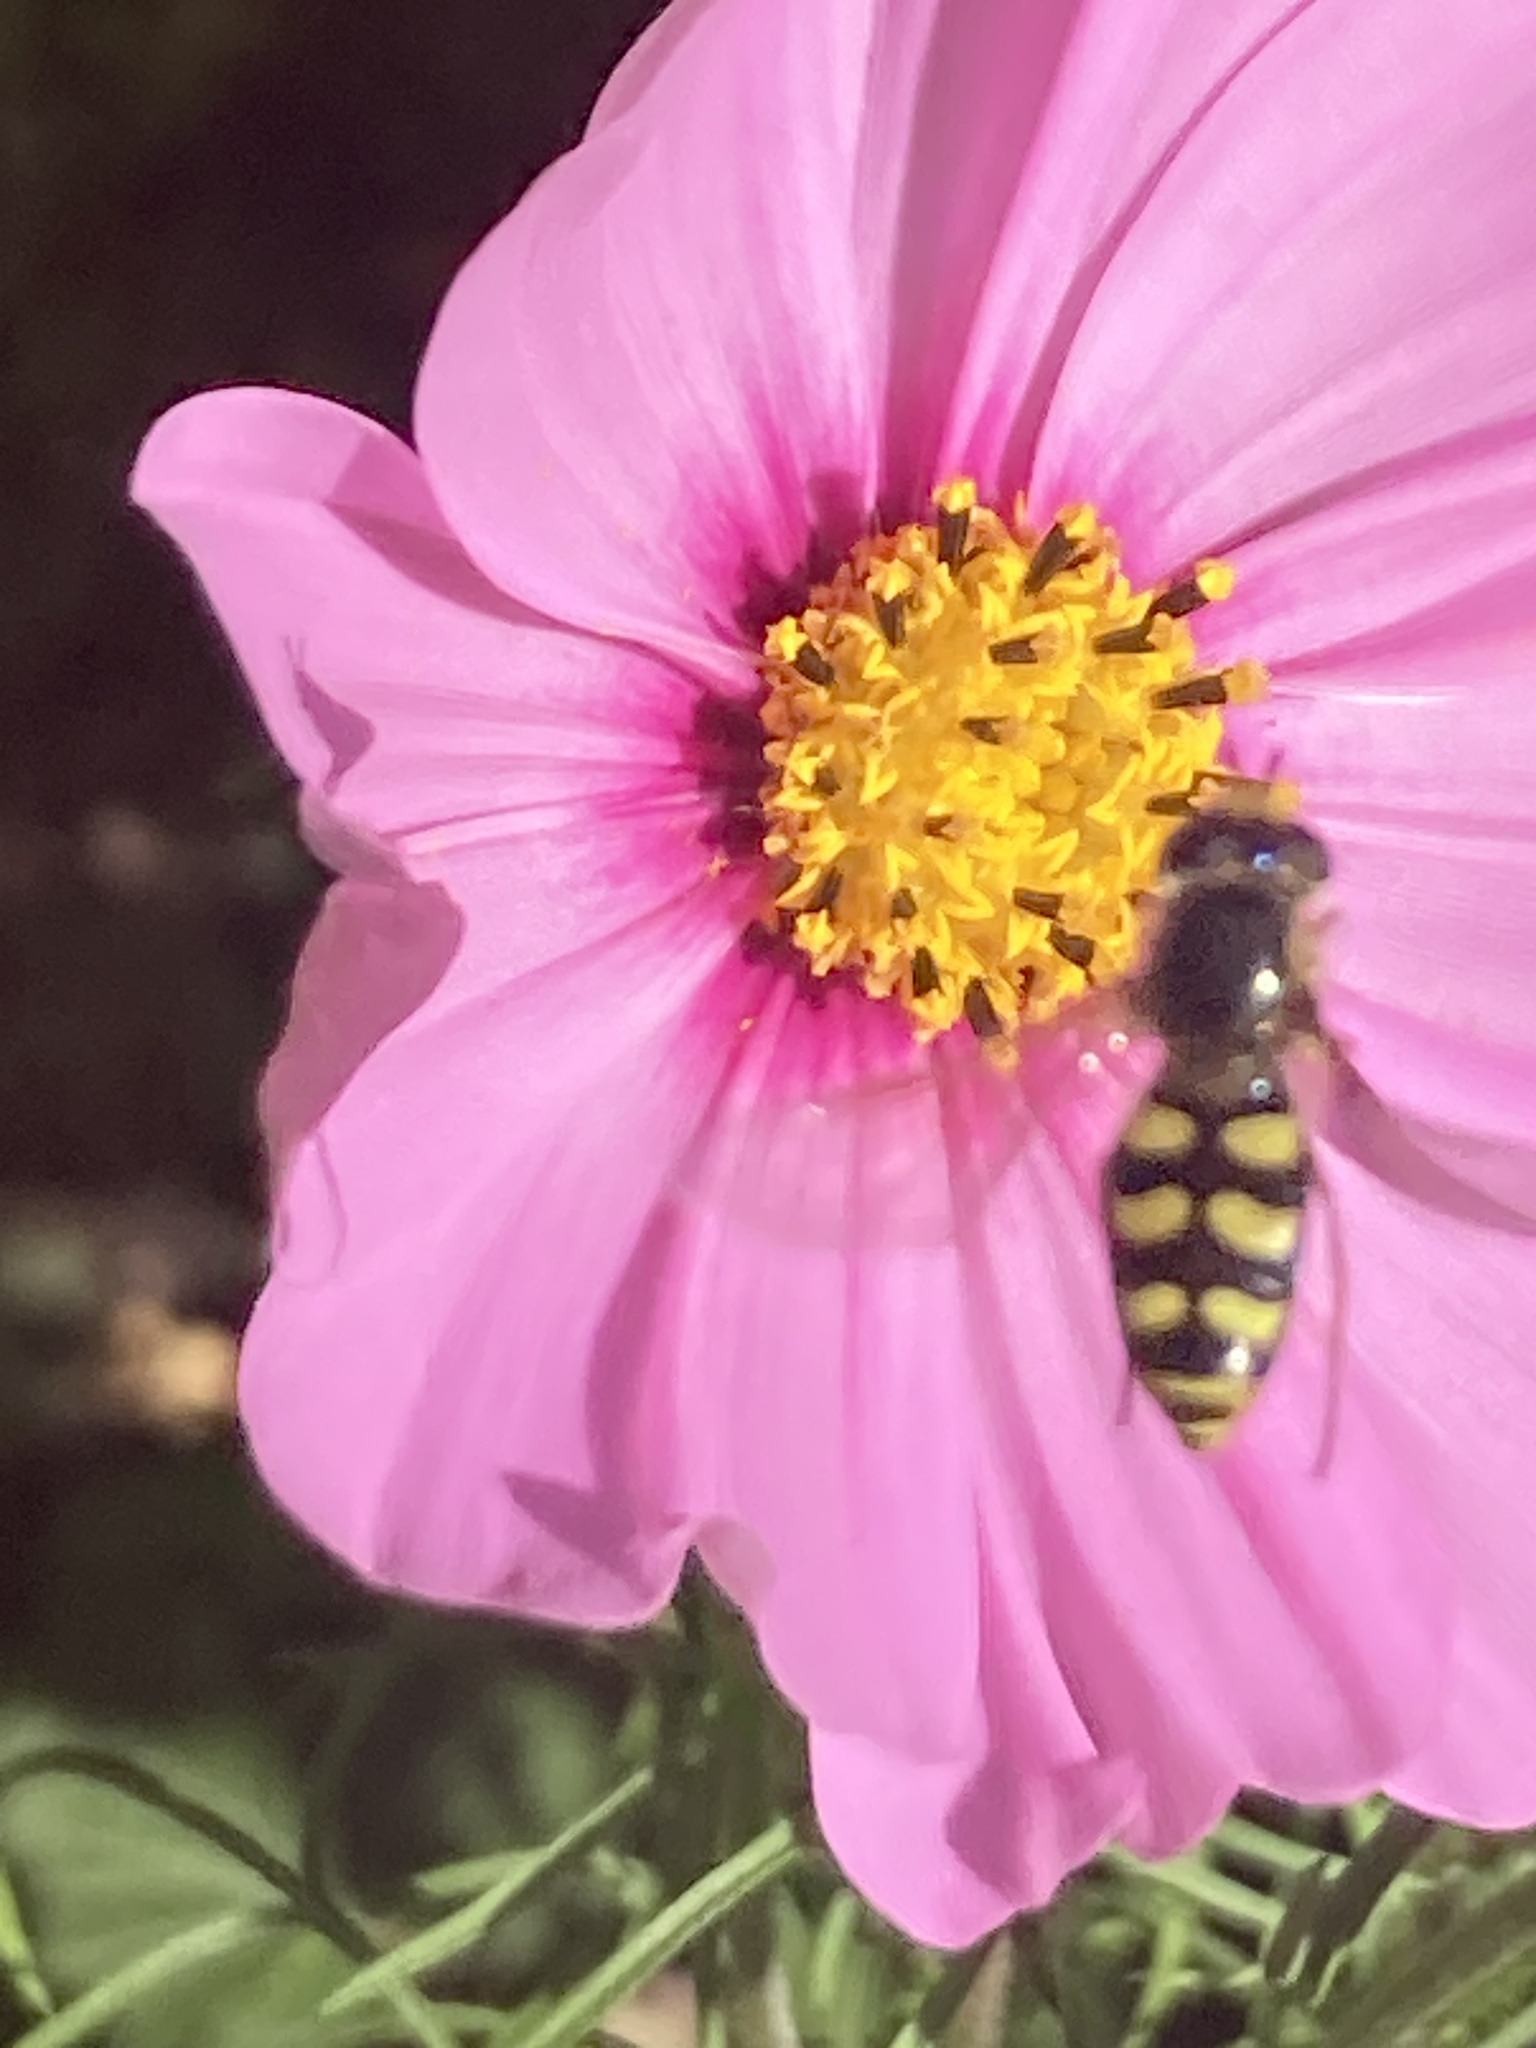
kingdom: Animalia
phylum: Arthropoda
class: Insecta
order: Diptera
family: Syrphidae
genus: Eupeodes
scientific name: Eupeodes corollae
